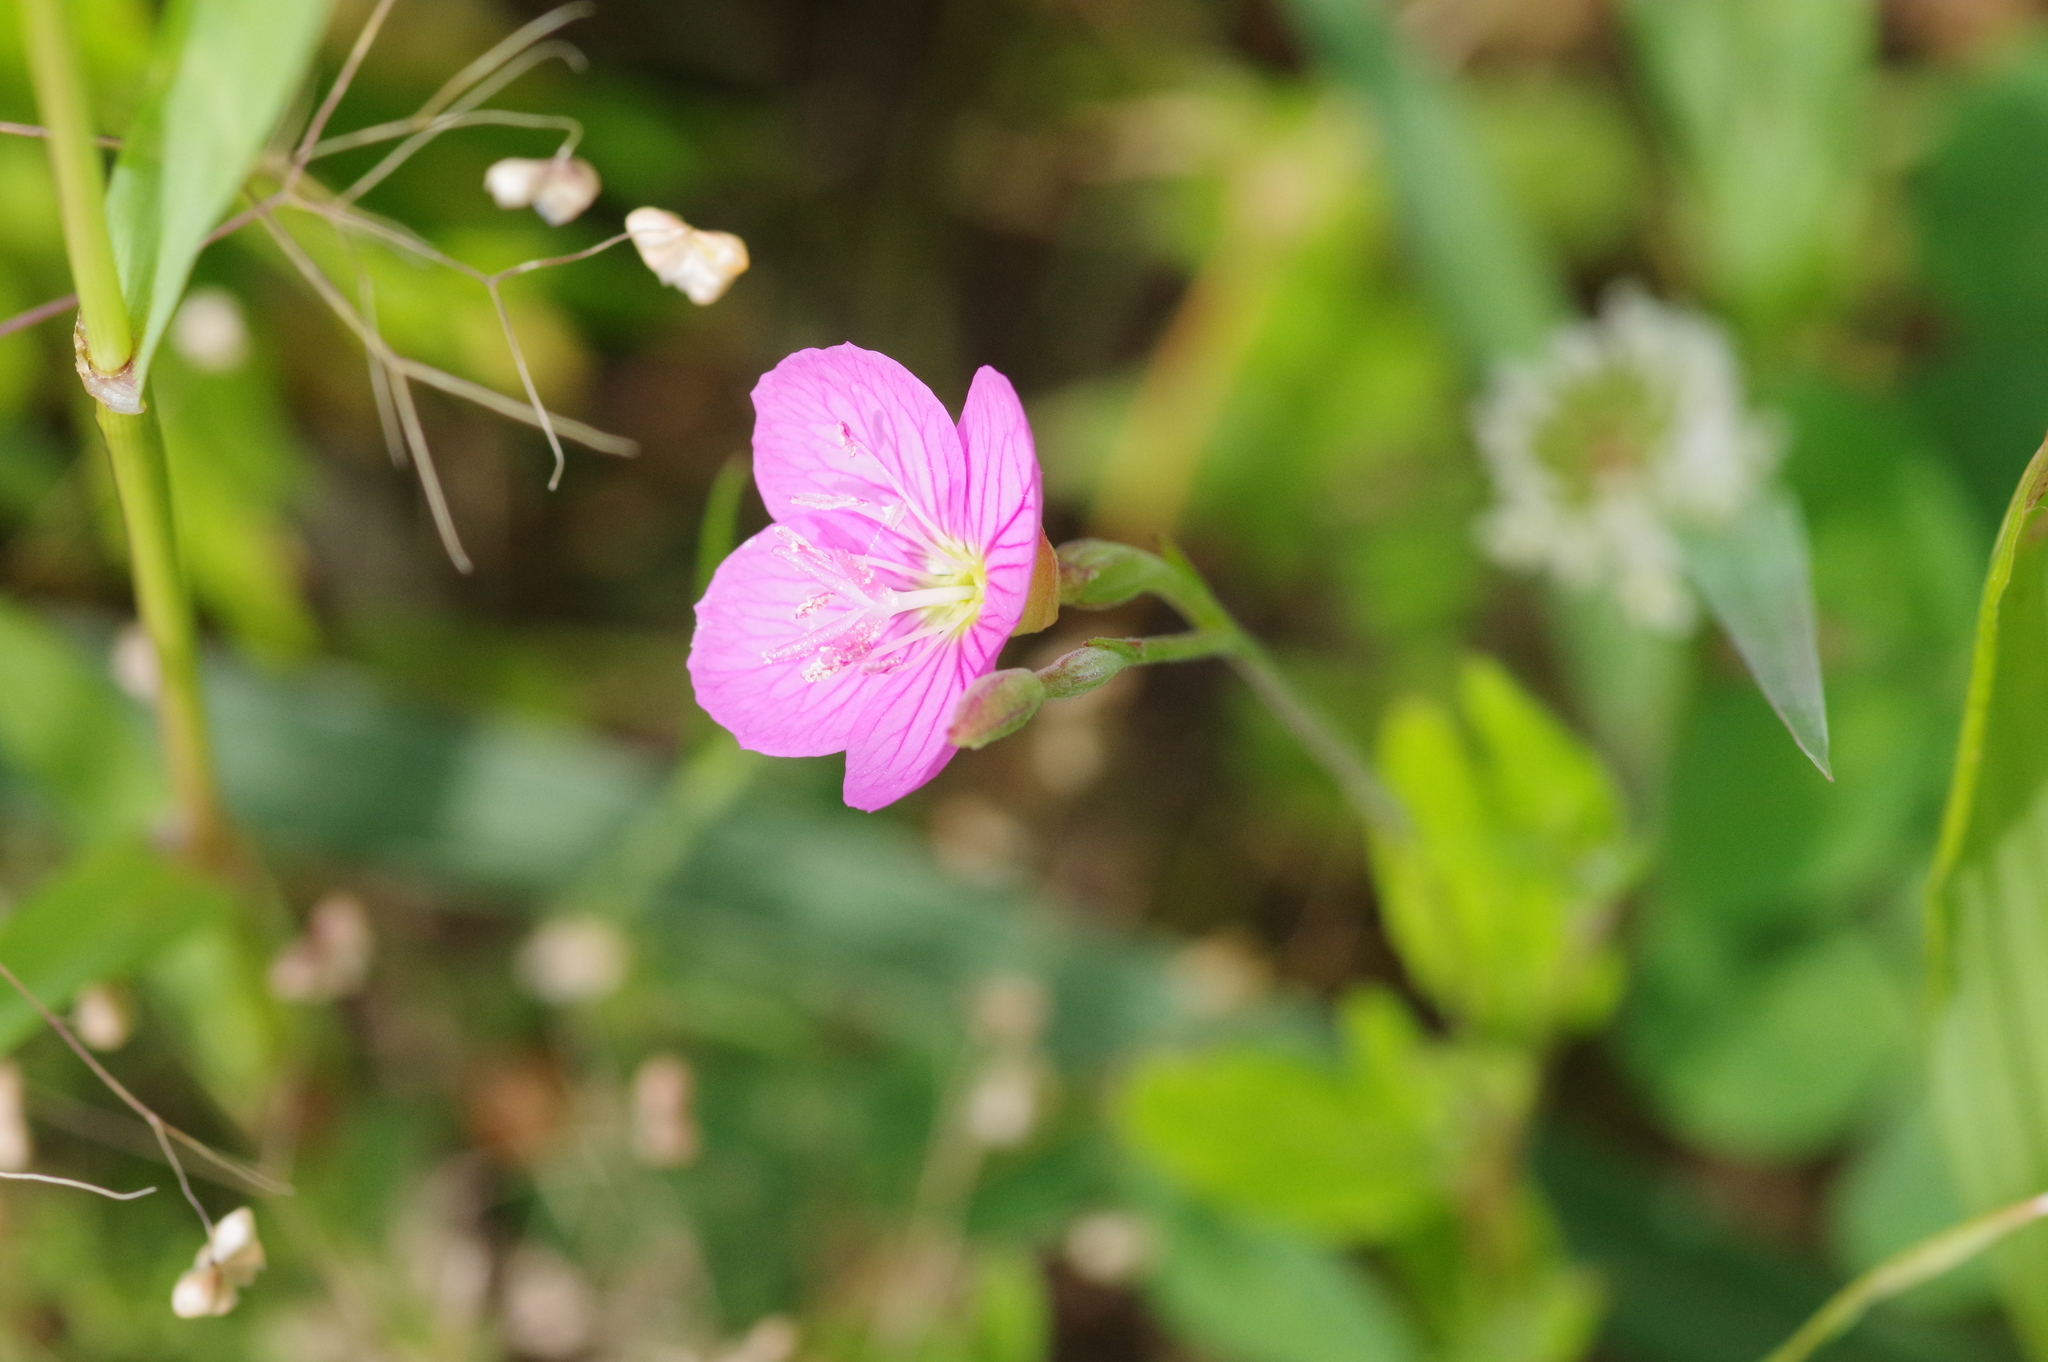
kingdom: Plantae
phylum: Tracheophyta
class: Magnoliopsida
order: Myrtales
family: Onagraceae
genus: Oenothera
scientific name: Oenothera rosea
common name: Rosy evening-primrose
